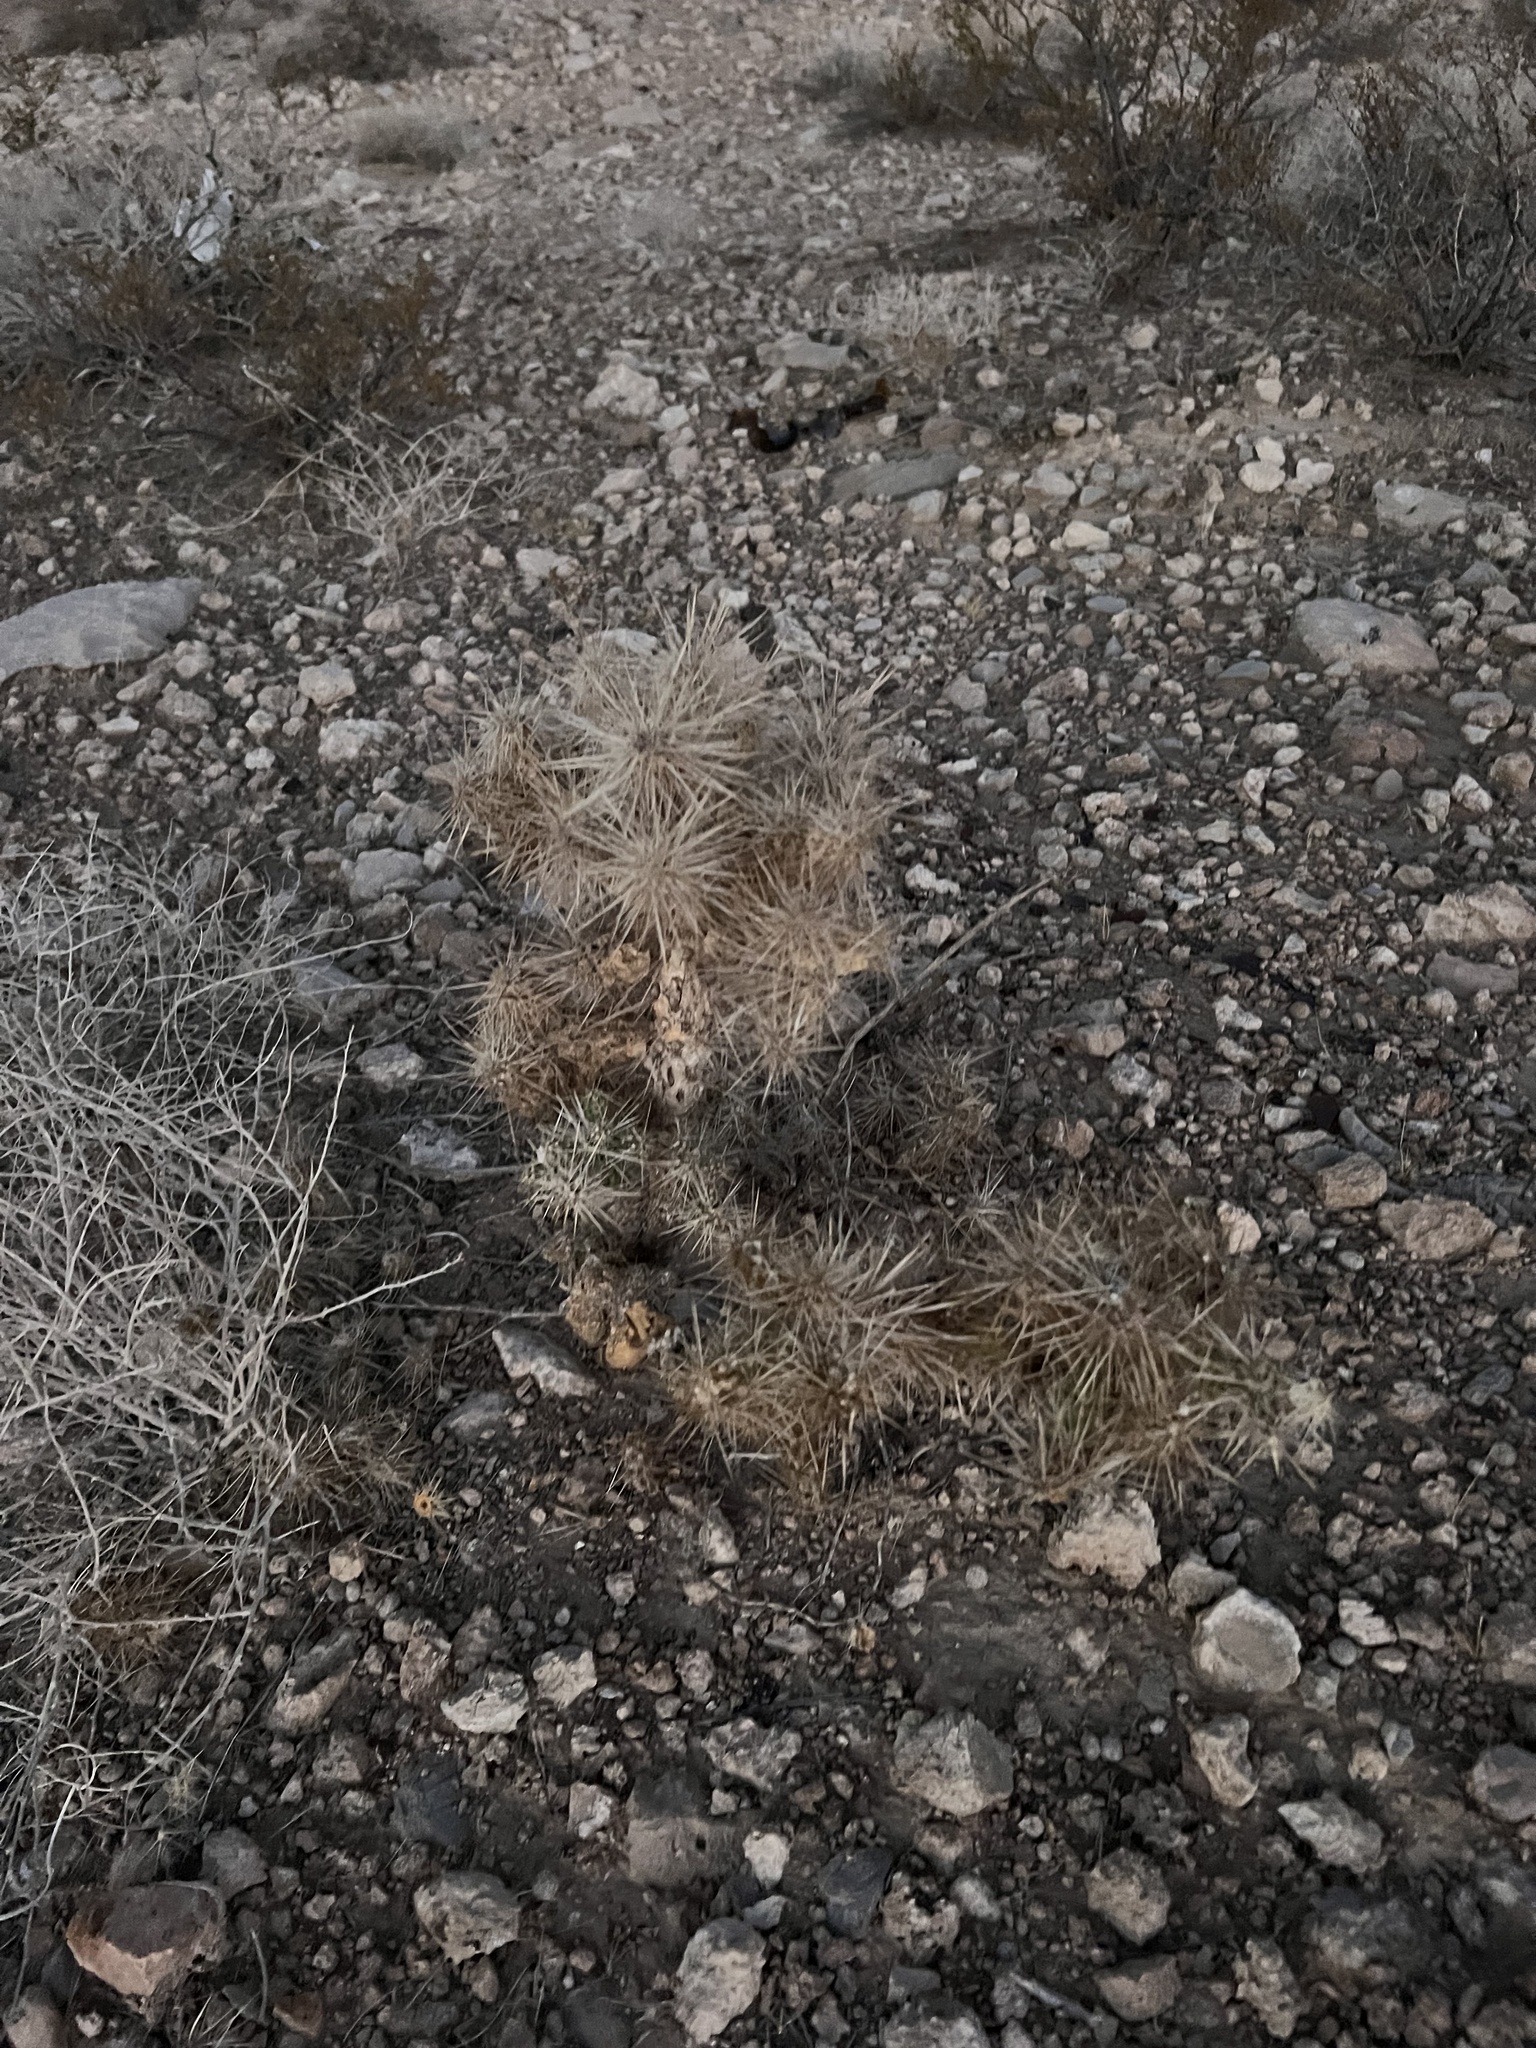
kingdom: Plantae
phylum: Tracheophyta
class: Magnoliopsida
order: Caryophyllales
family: Cactaceae
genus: Cylindropuntia
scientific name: Cylindropuntia echinocarpa
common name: Ground cholla
